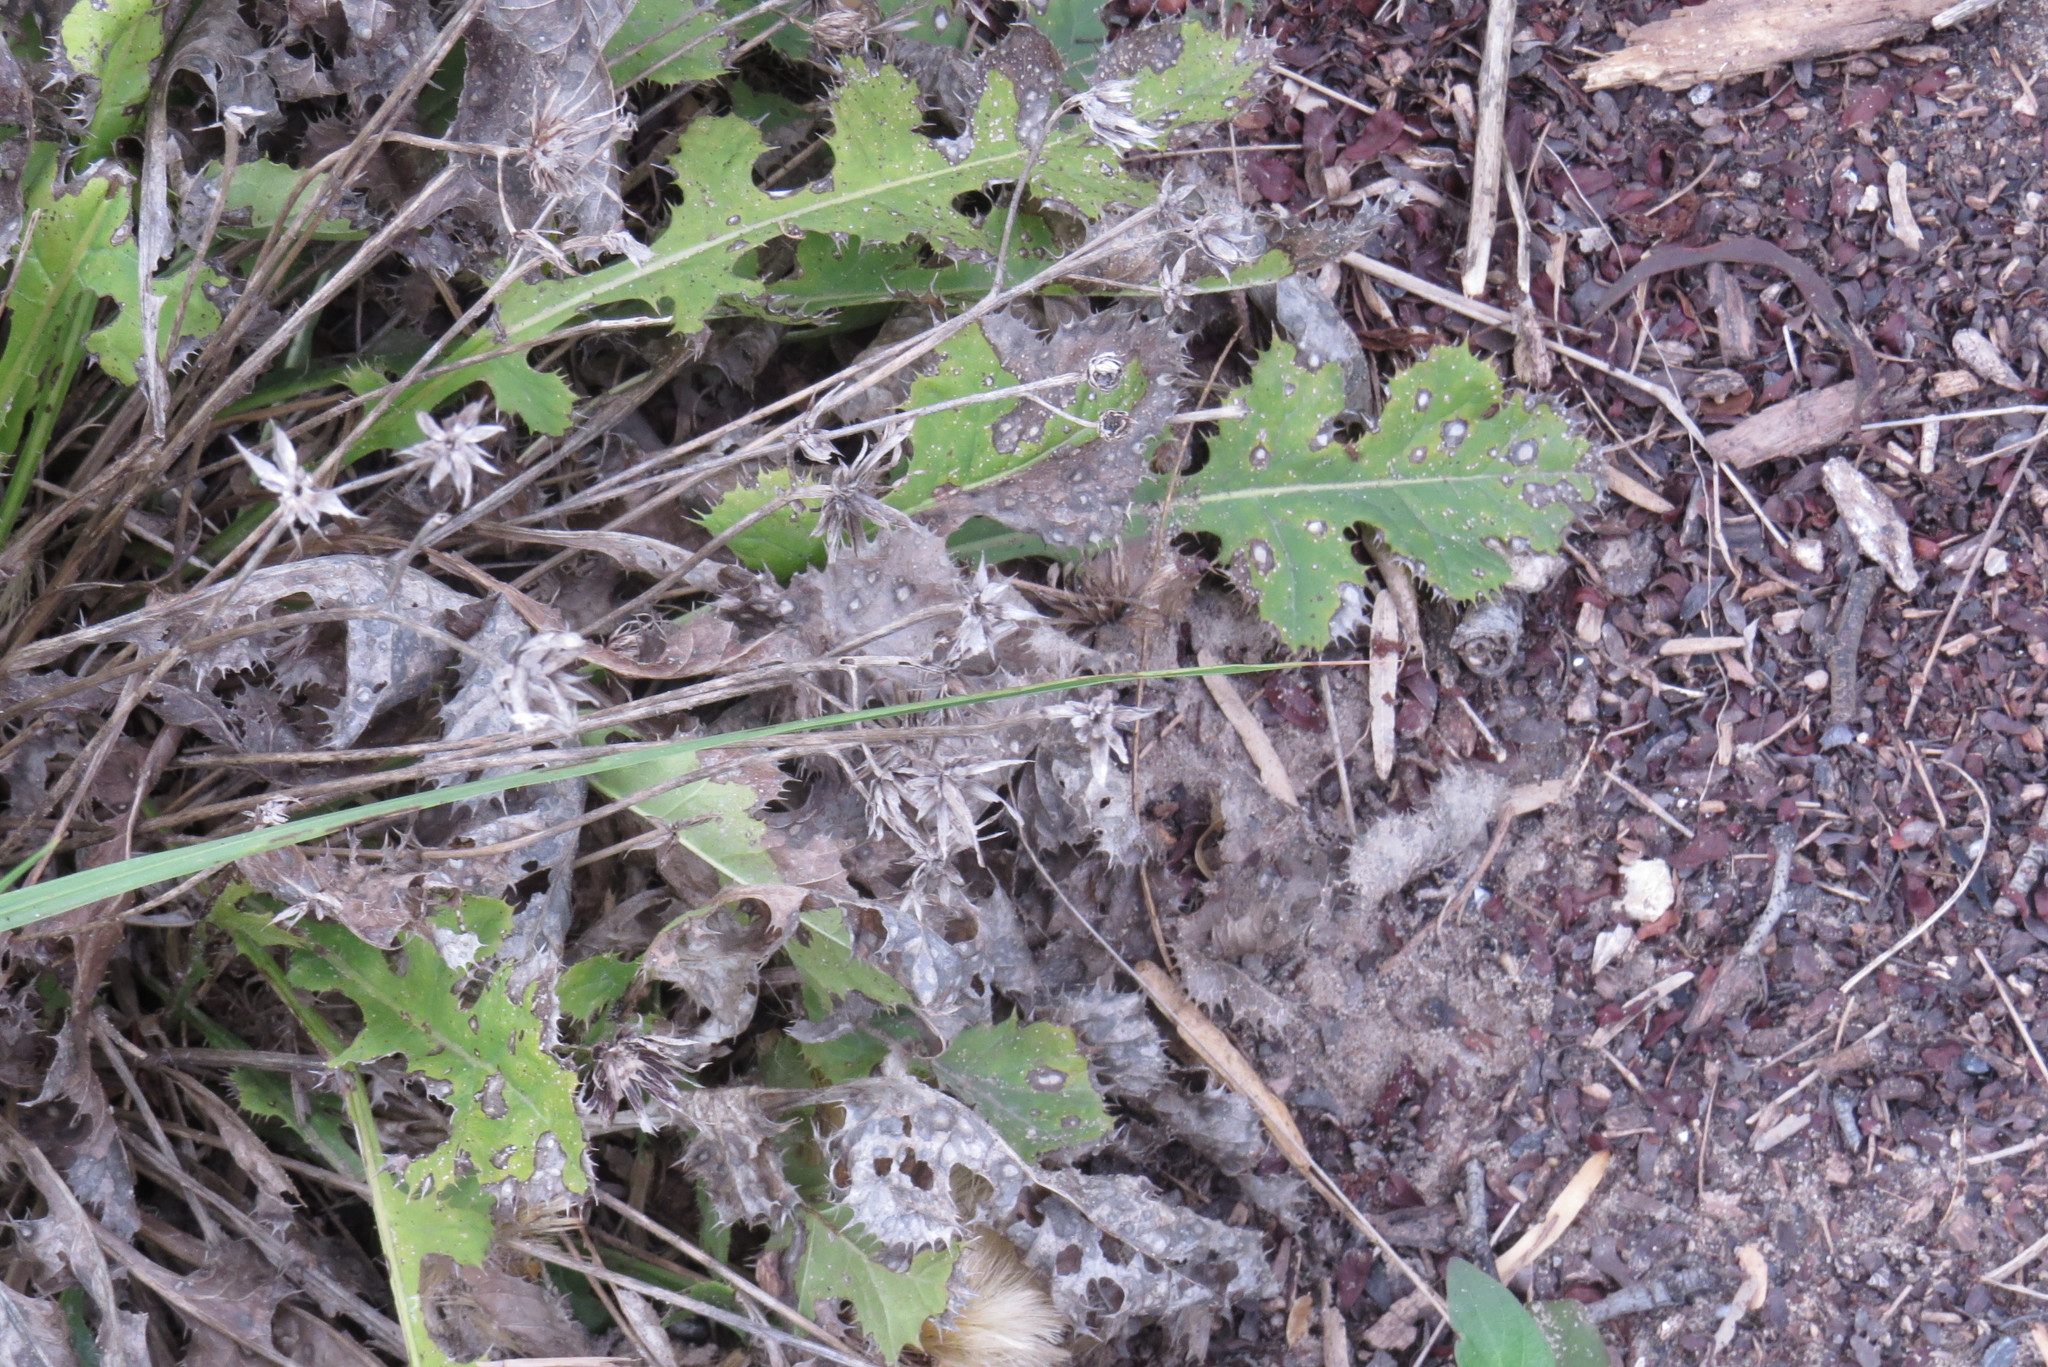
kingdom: Plantae
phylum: Tracheophyta
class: Magnoliopsida
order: Asterales
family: Asteraceae
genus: Acourtia
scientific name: Acourtia runcinata
